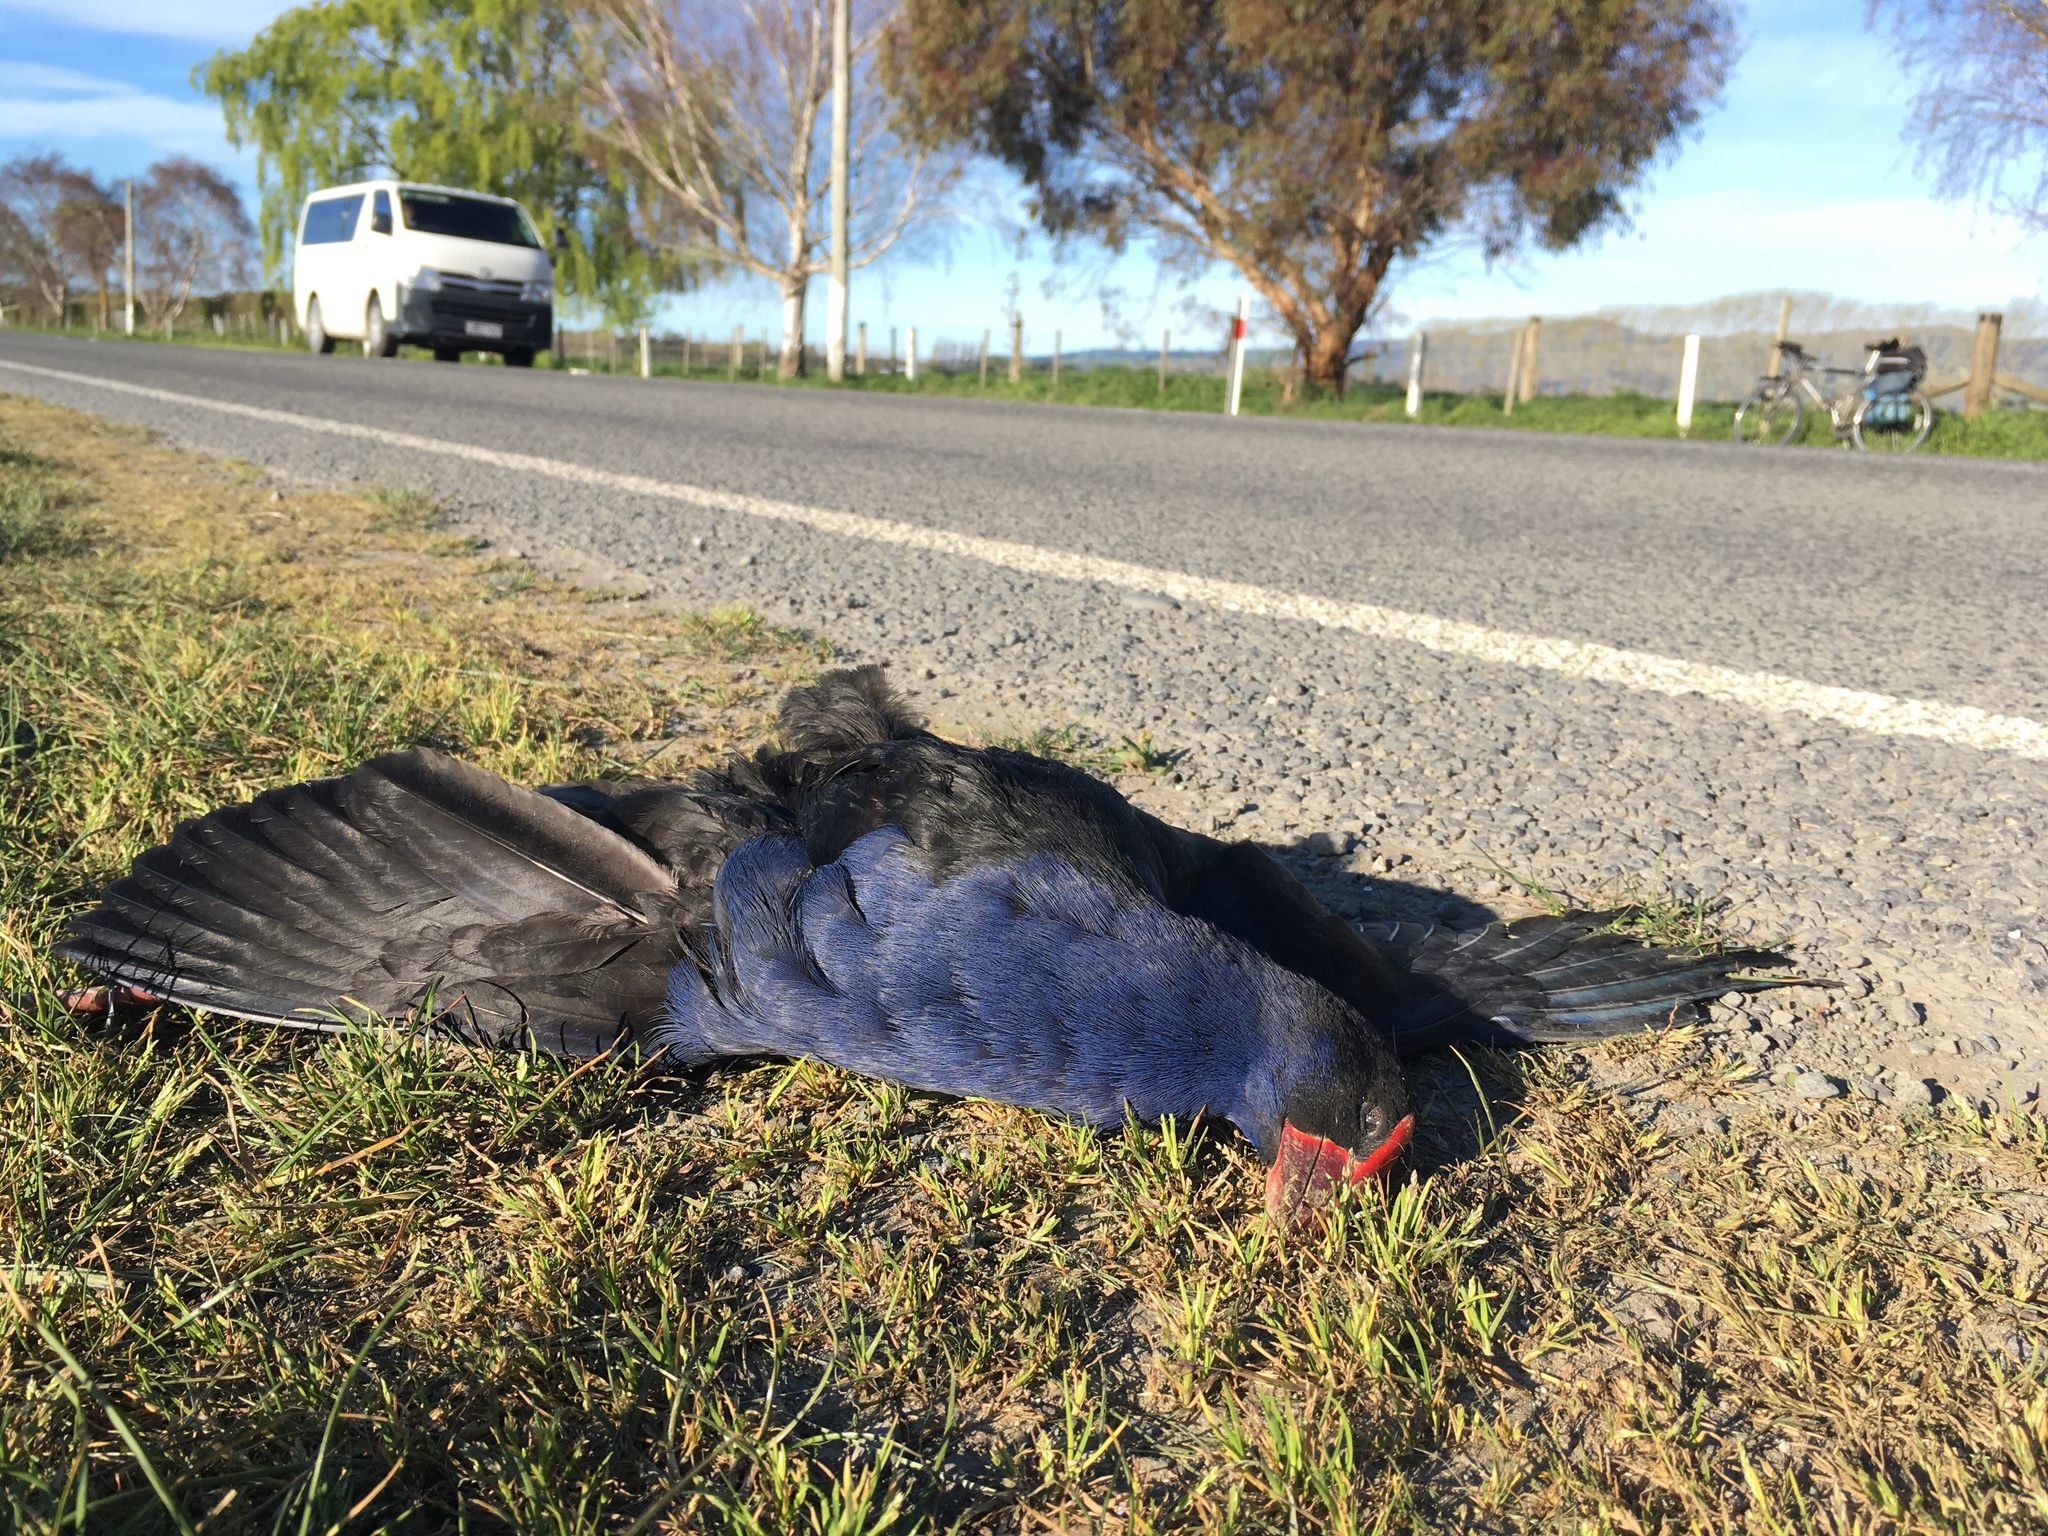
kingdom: Animalia
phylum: Chordata
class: Aves
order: Gruiformes
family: Rallidae
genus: Porphyrio
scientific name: Porphyrio melanotus
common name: Australasian swamphen
